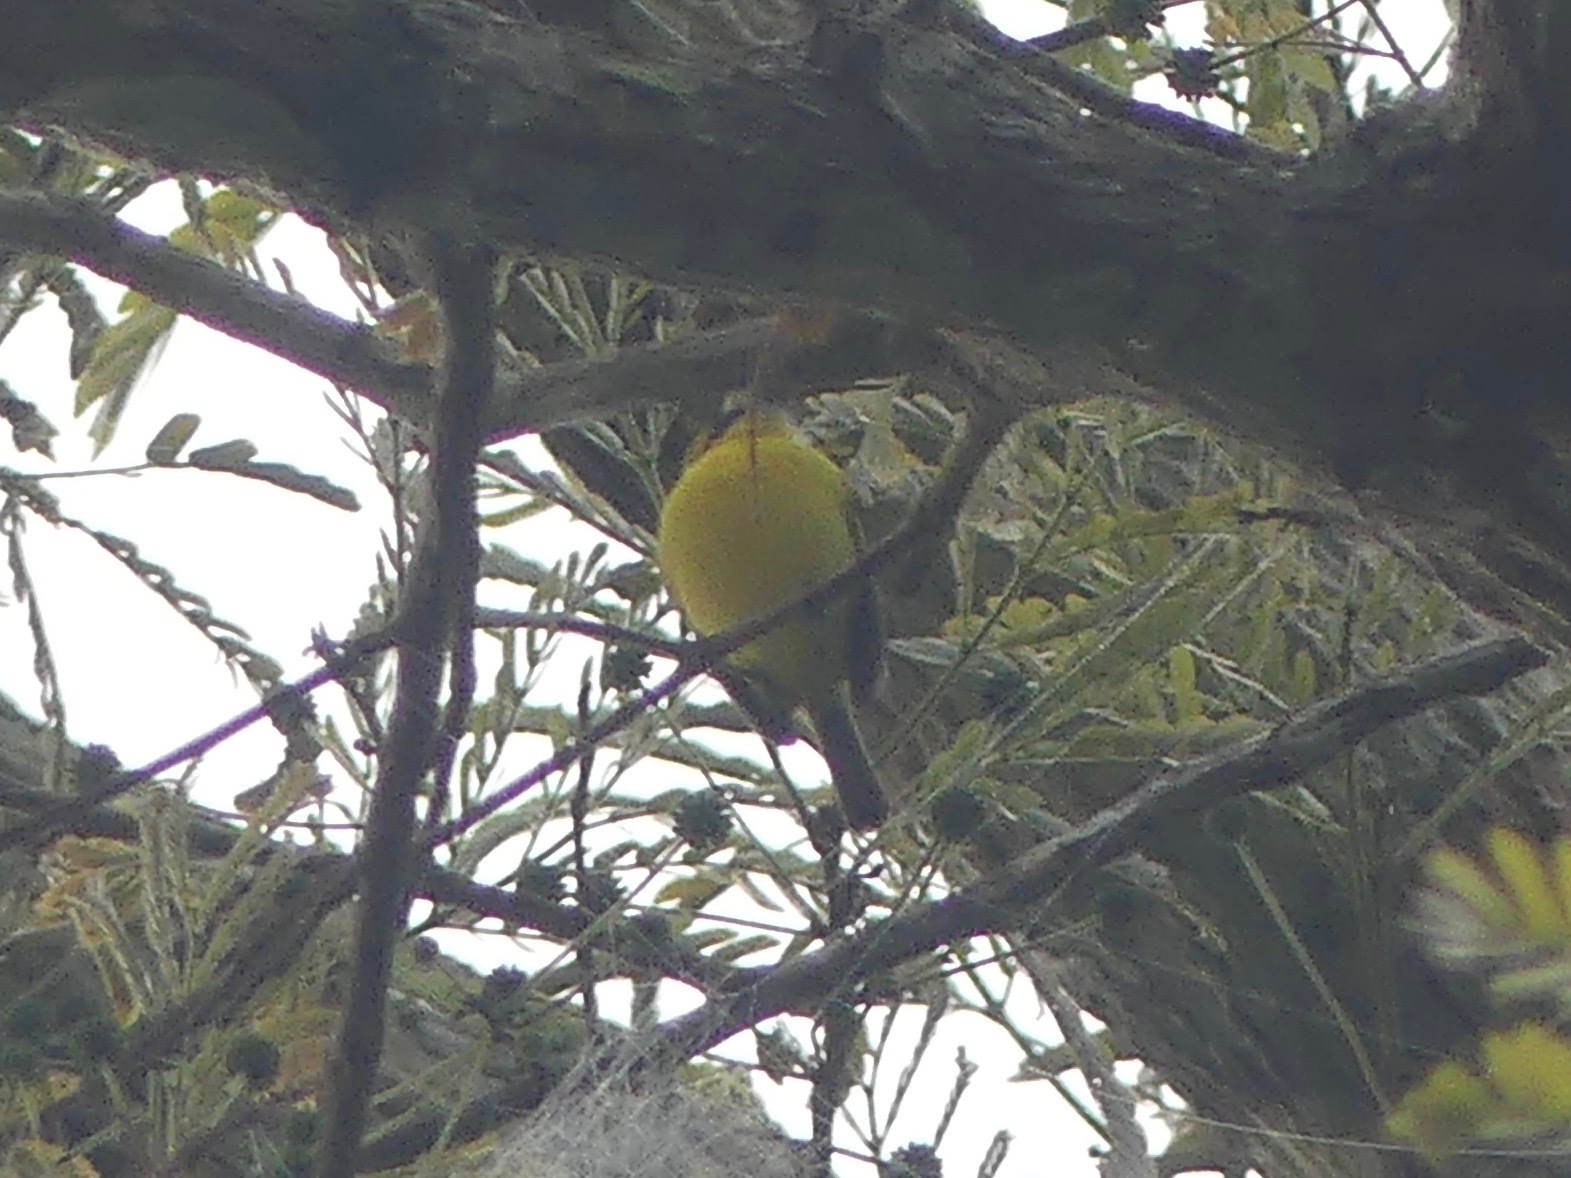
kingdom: Animalia
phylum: Chordata
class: Aves
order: Passeriformes
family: Tyrannidae
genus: Todirostrum
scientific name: Todirostrum chrysocrotaphum
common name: Yellow-browed tody-flycatcher
